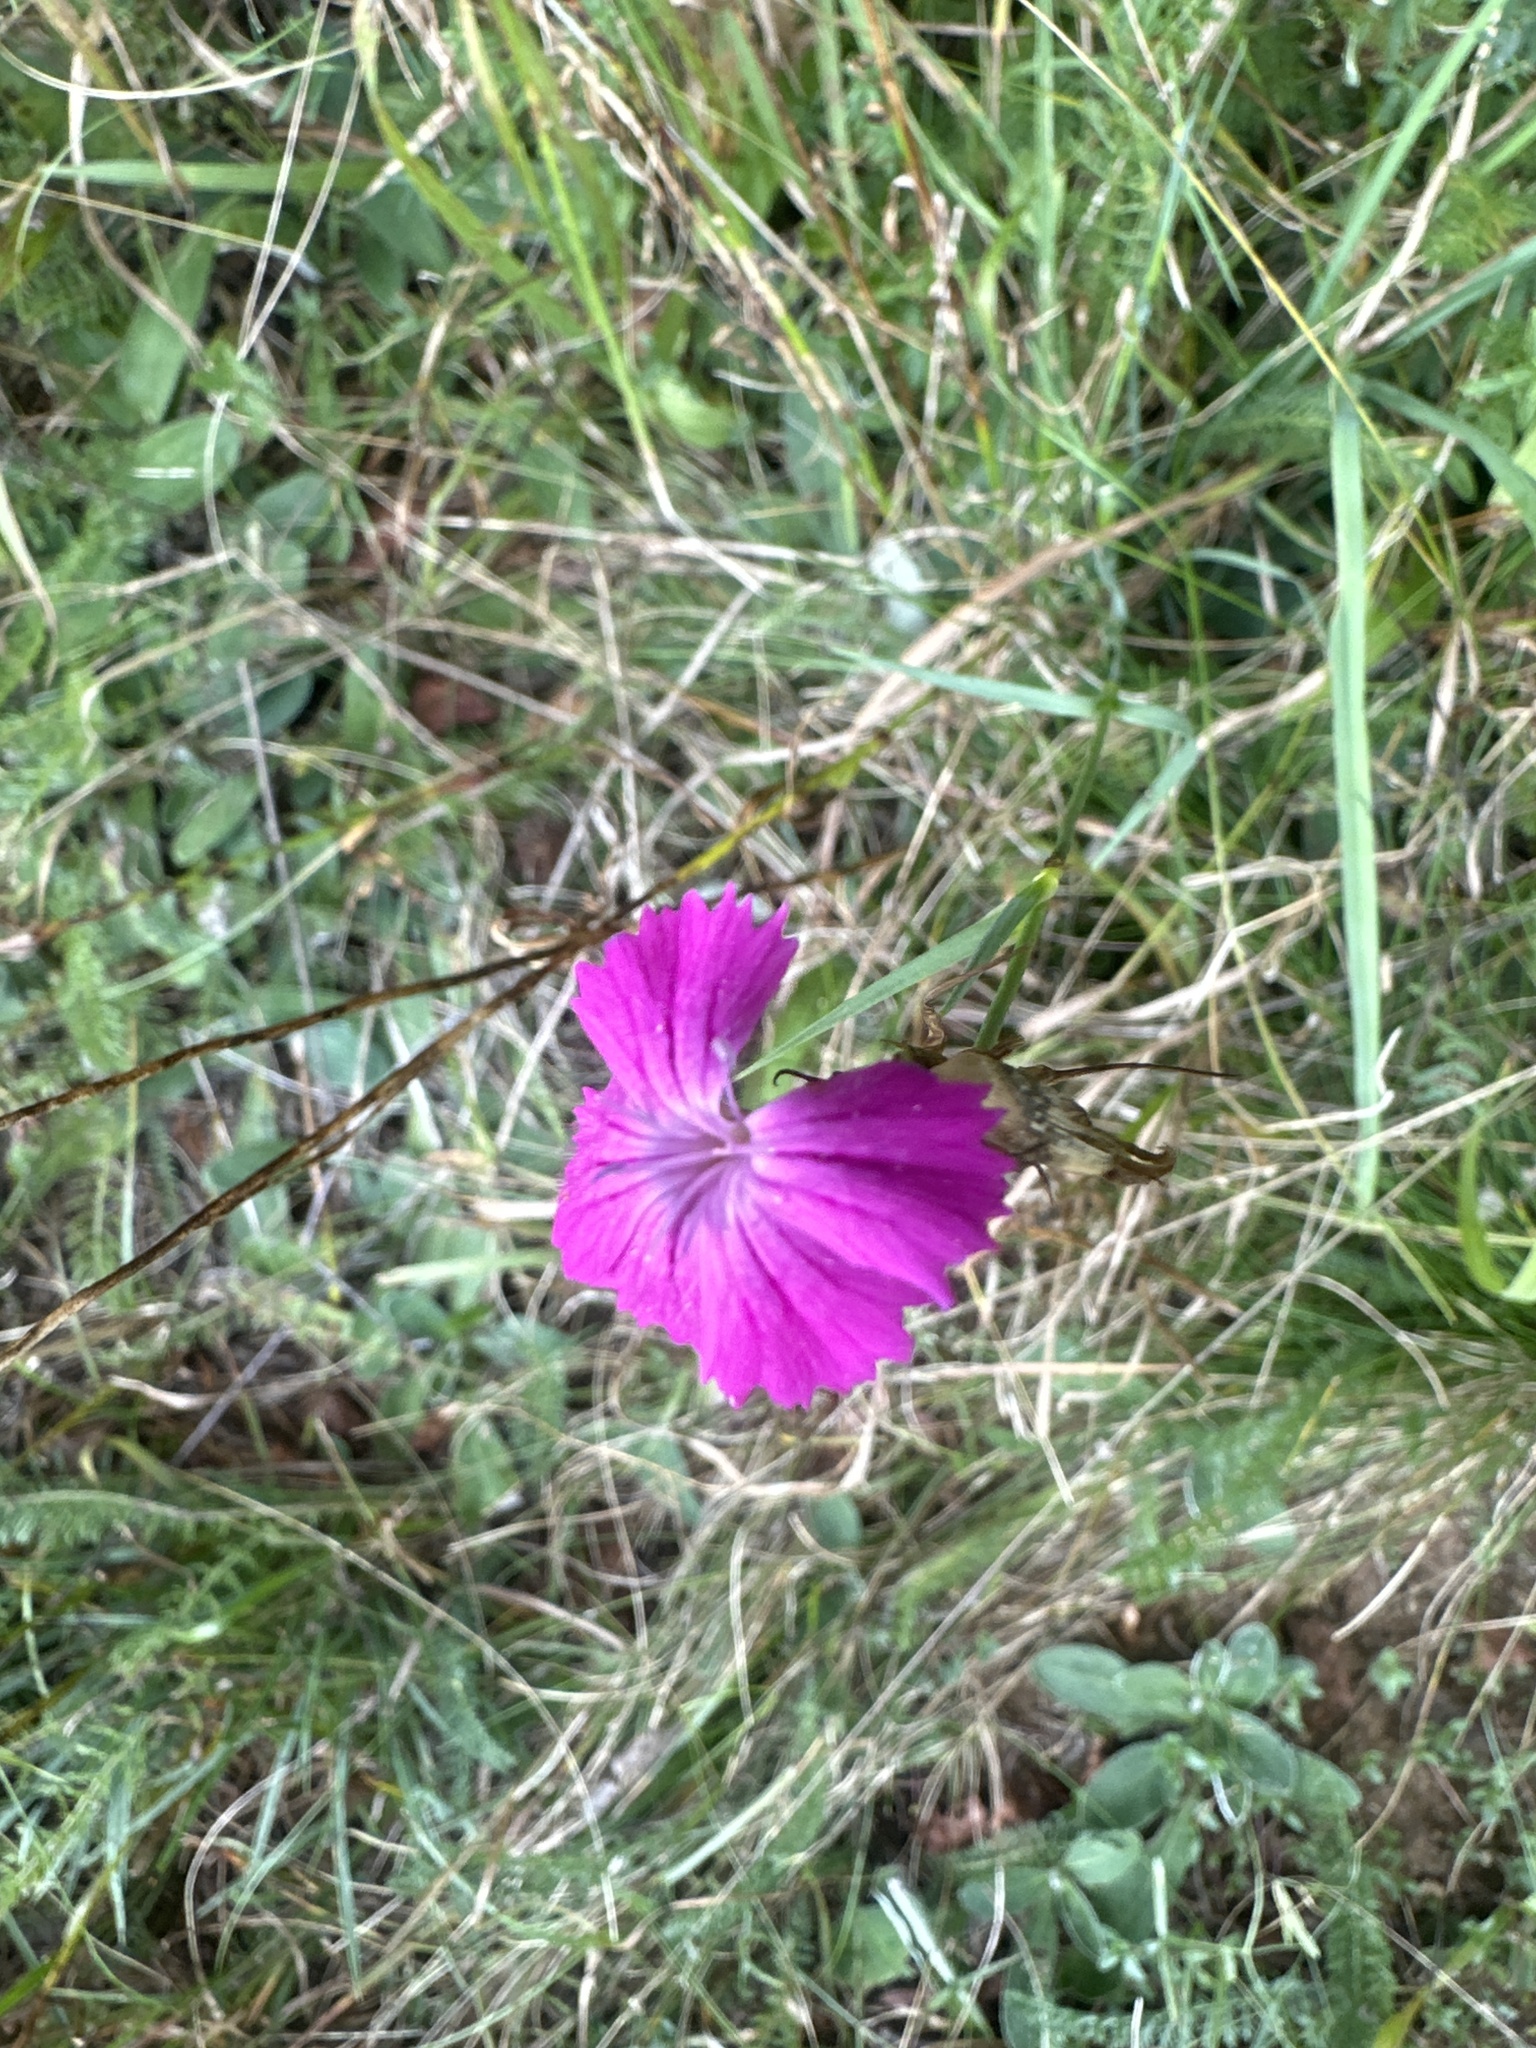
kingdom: Plantae
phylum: Tracheophyta
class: Magnoliopsida
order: Caryophyllales
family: Caryophyllaceae
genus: Dianthus
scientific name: Dianthus carthusianorum
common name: Carthusian pink
